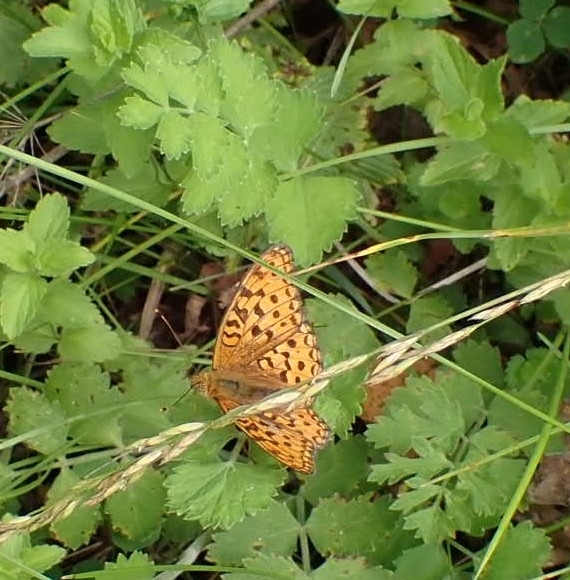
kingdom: Animalia
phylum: Arthropoda
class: Insecta
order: Lepidoptera
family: Nymphalidae
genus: Fabriciana
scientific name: Fabriciana adippe
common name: High brown fritillary
